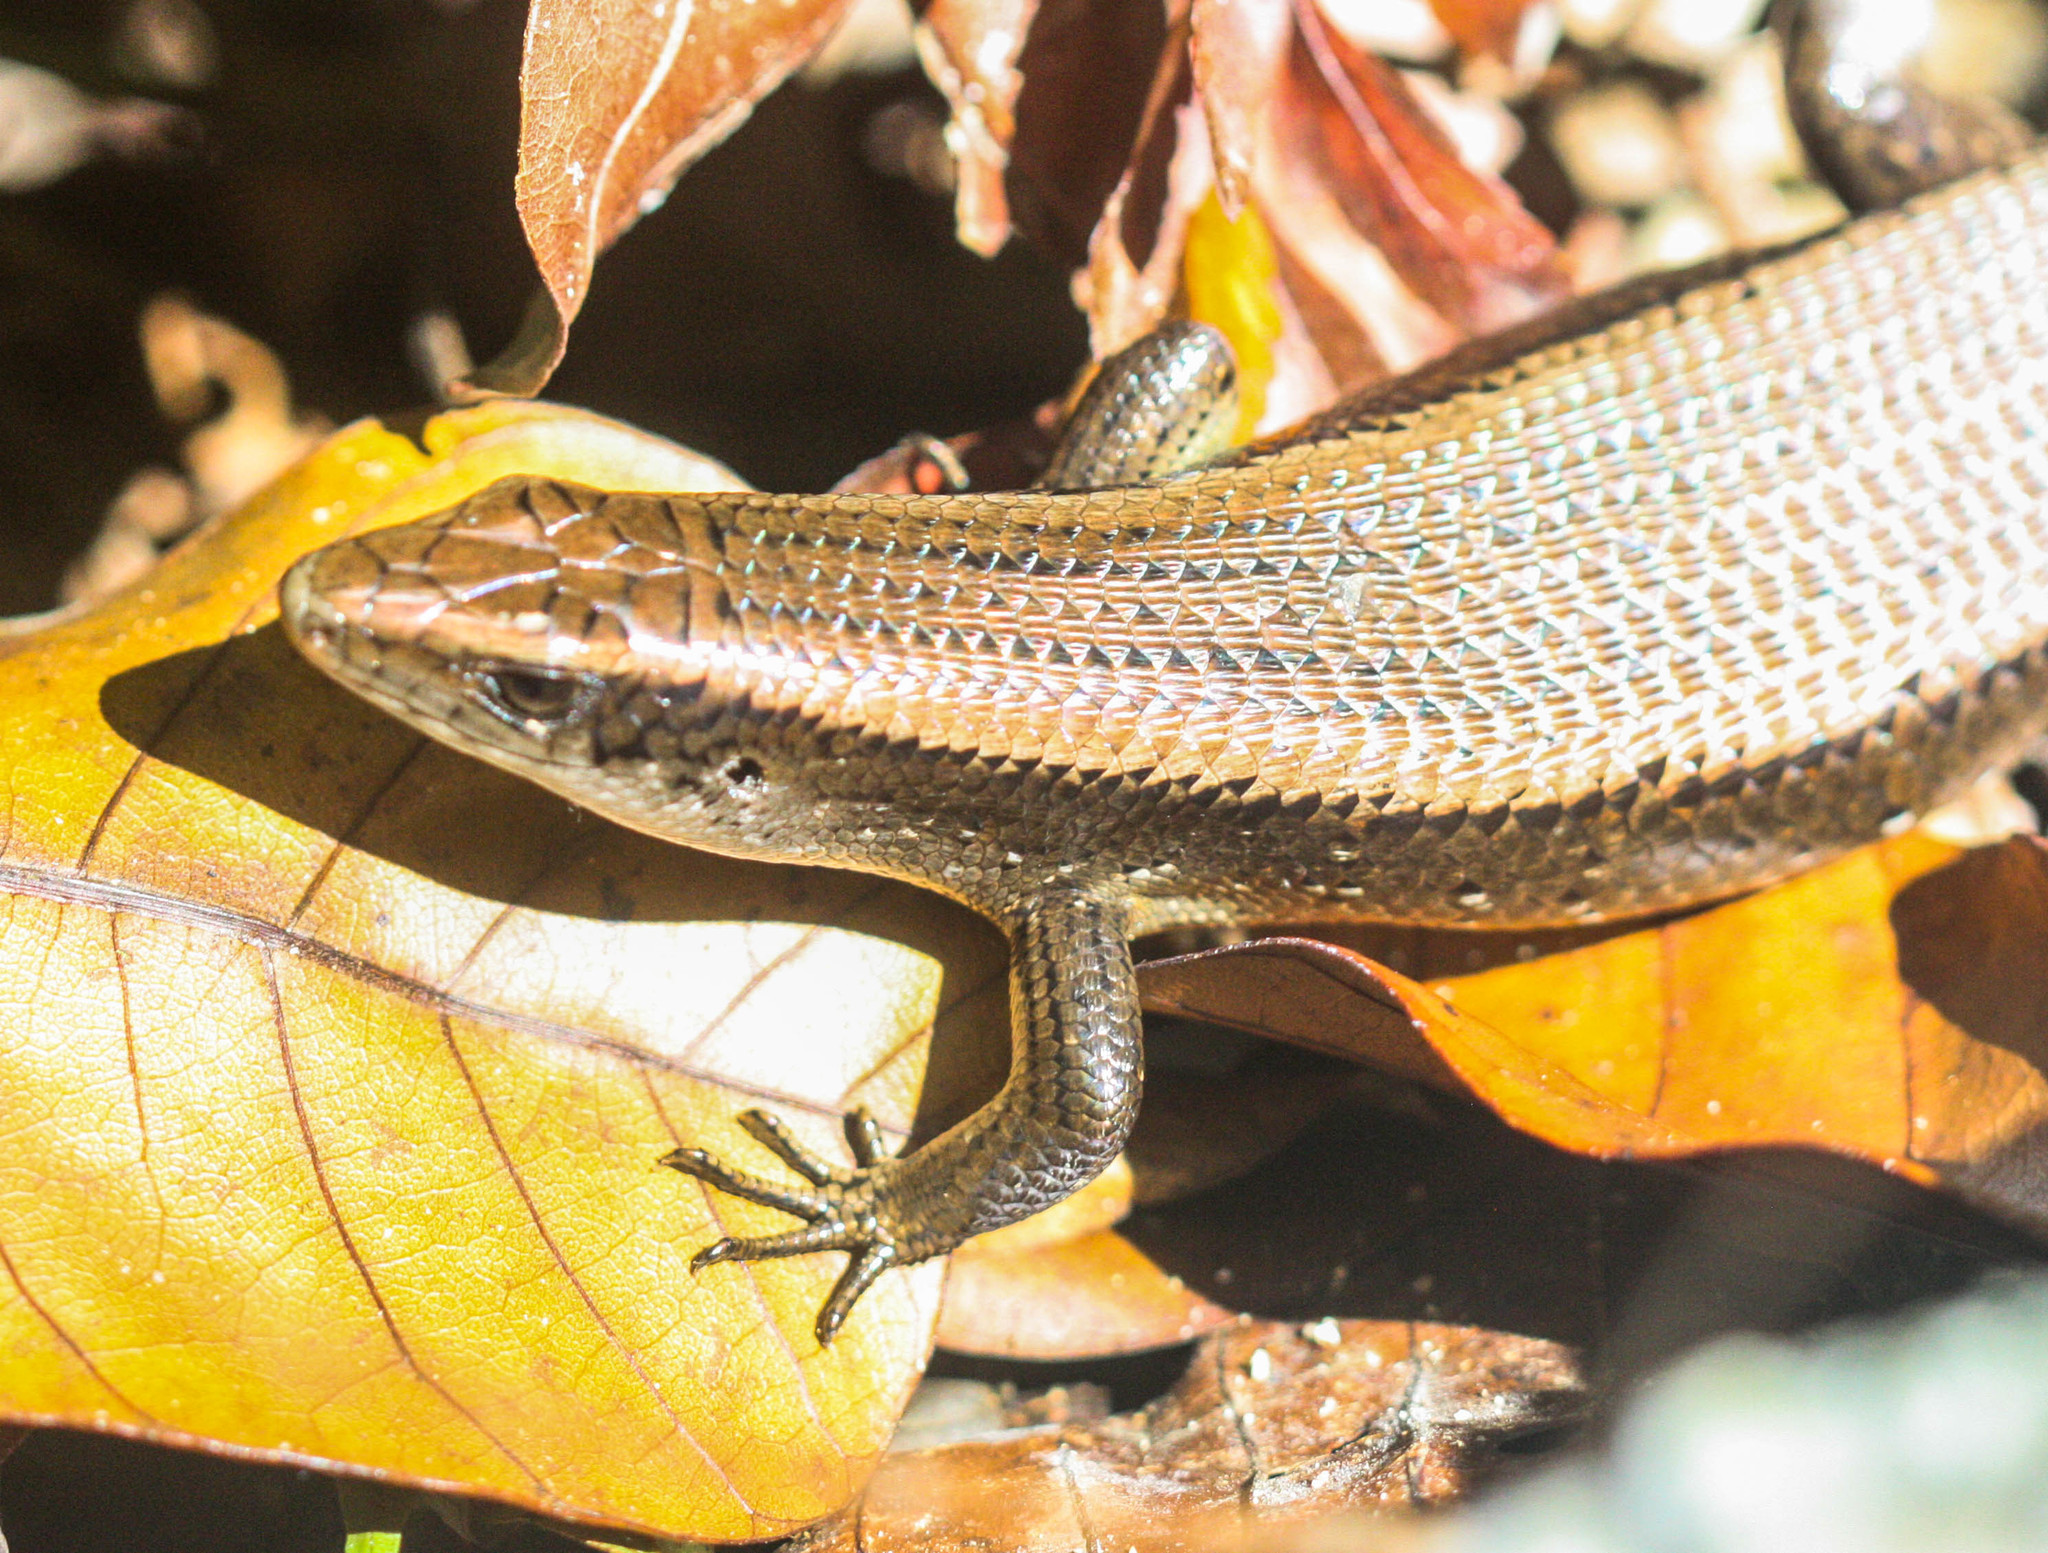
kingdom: Animalia
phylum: Chordata
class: Squamata
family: Scincidae
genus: Eutropis
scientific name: Eutropis multifasciata
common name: Common mabuya
